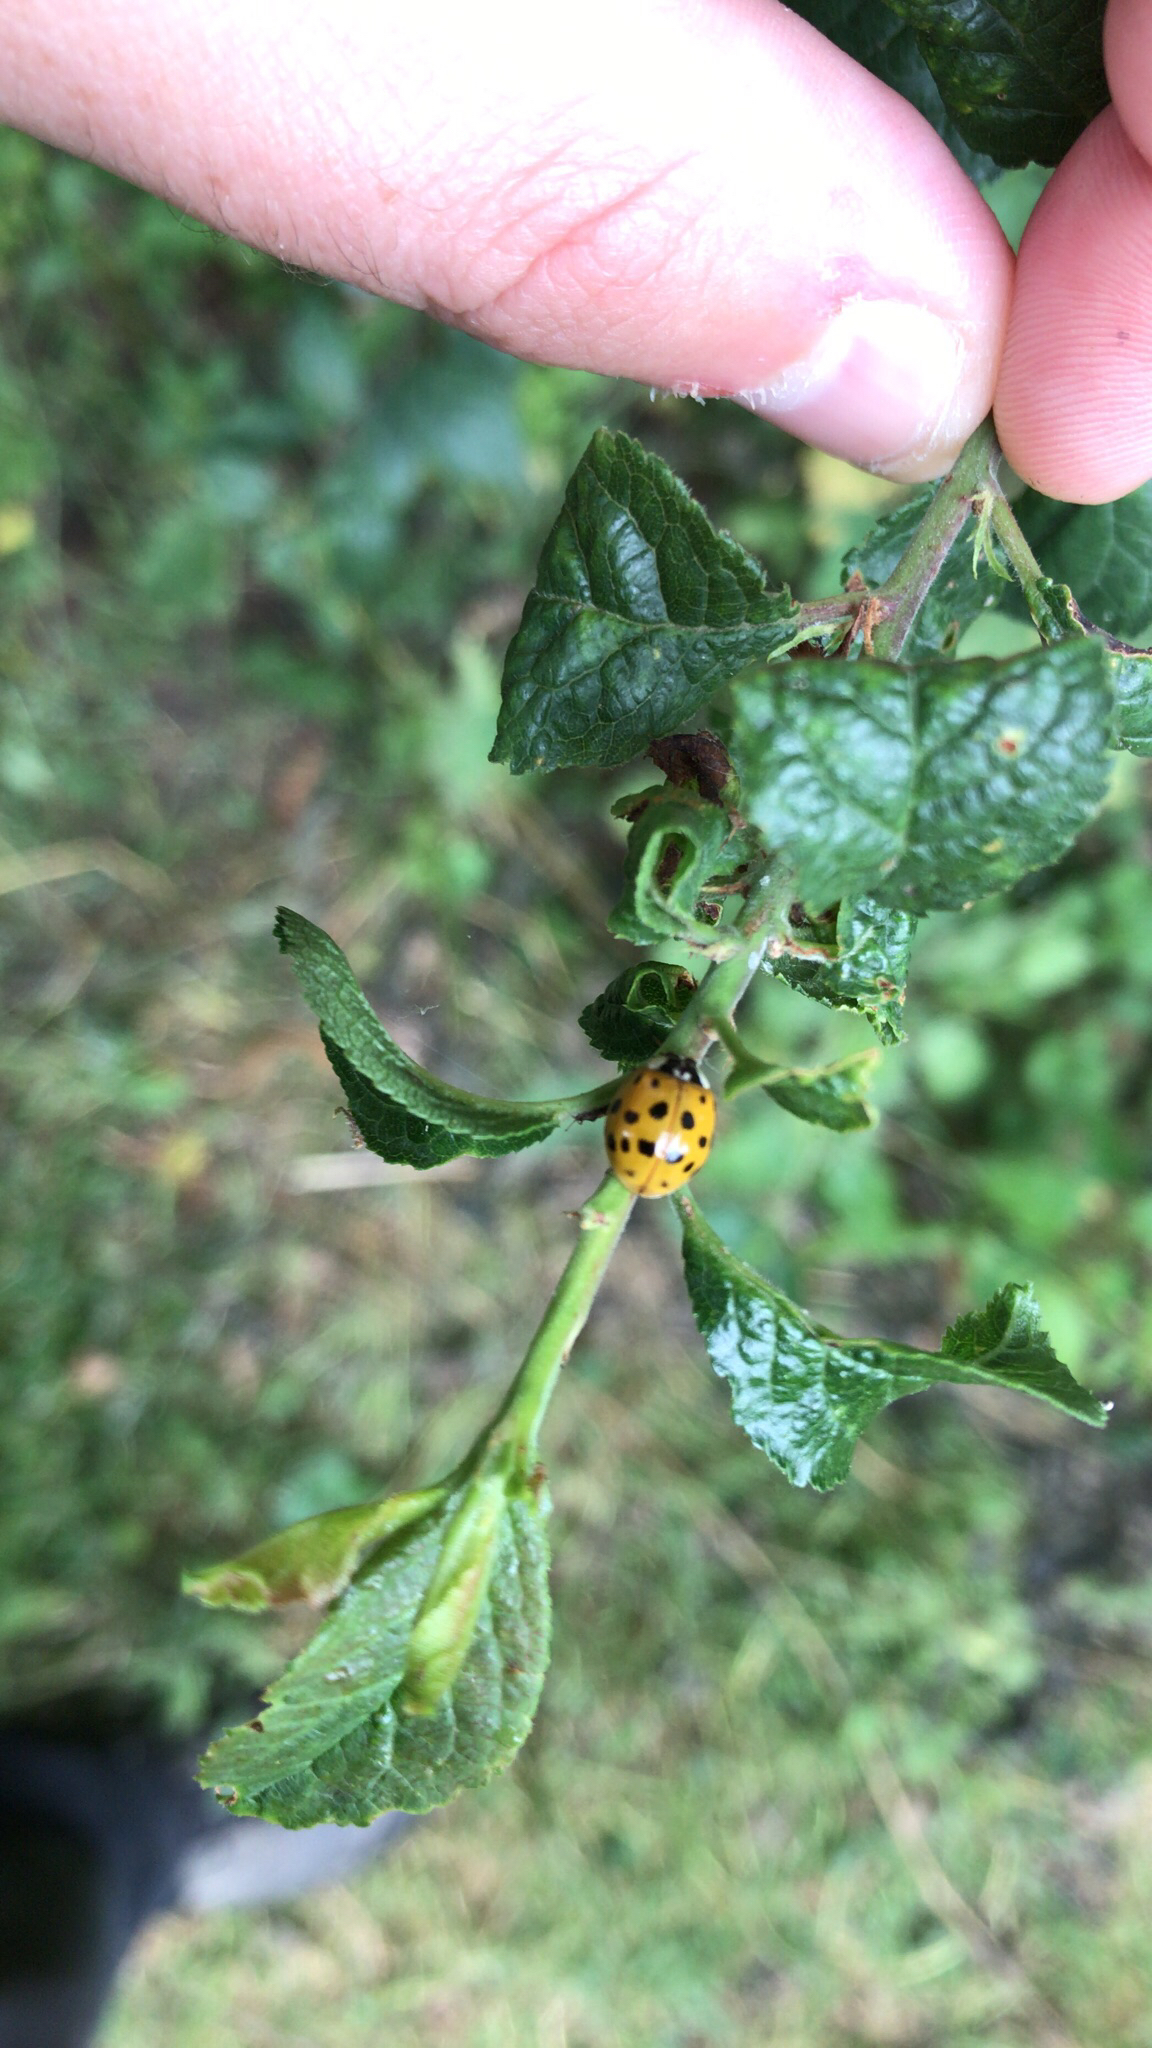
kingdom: Animalia
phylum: Arthropoda
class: Insecta
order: Coleoptera
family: Coccinellidae
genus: Harmonia
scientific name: Harmonia axyridis
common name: Harlequin ladybird
